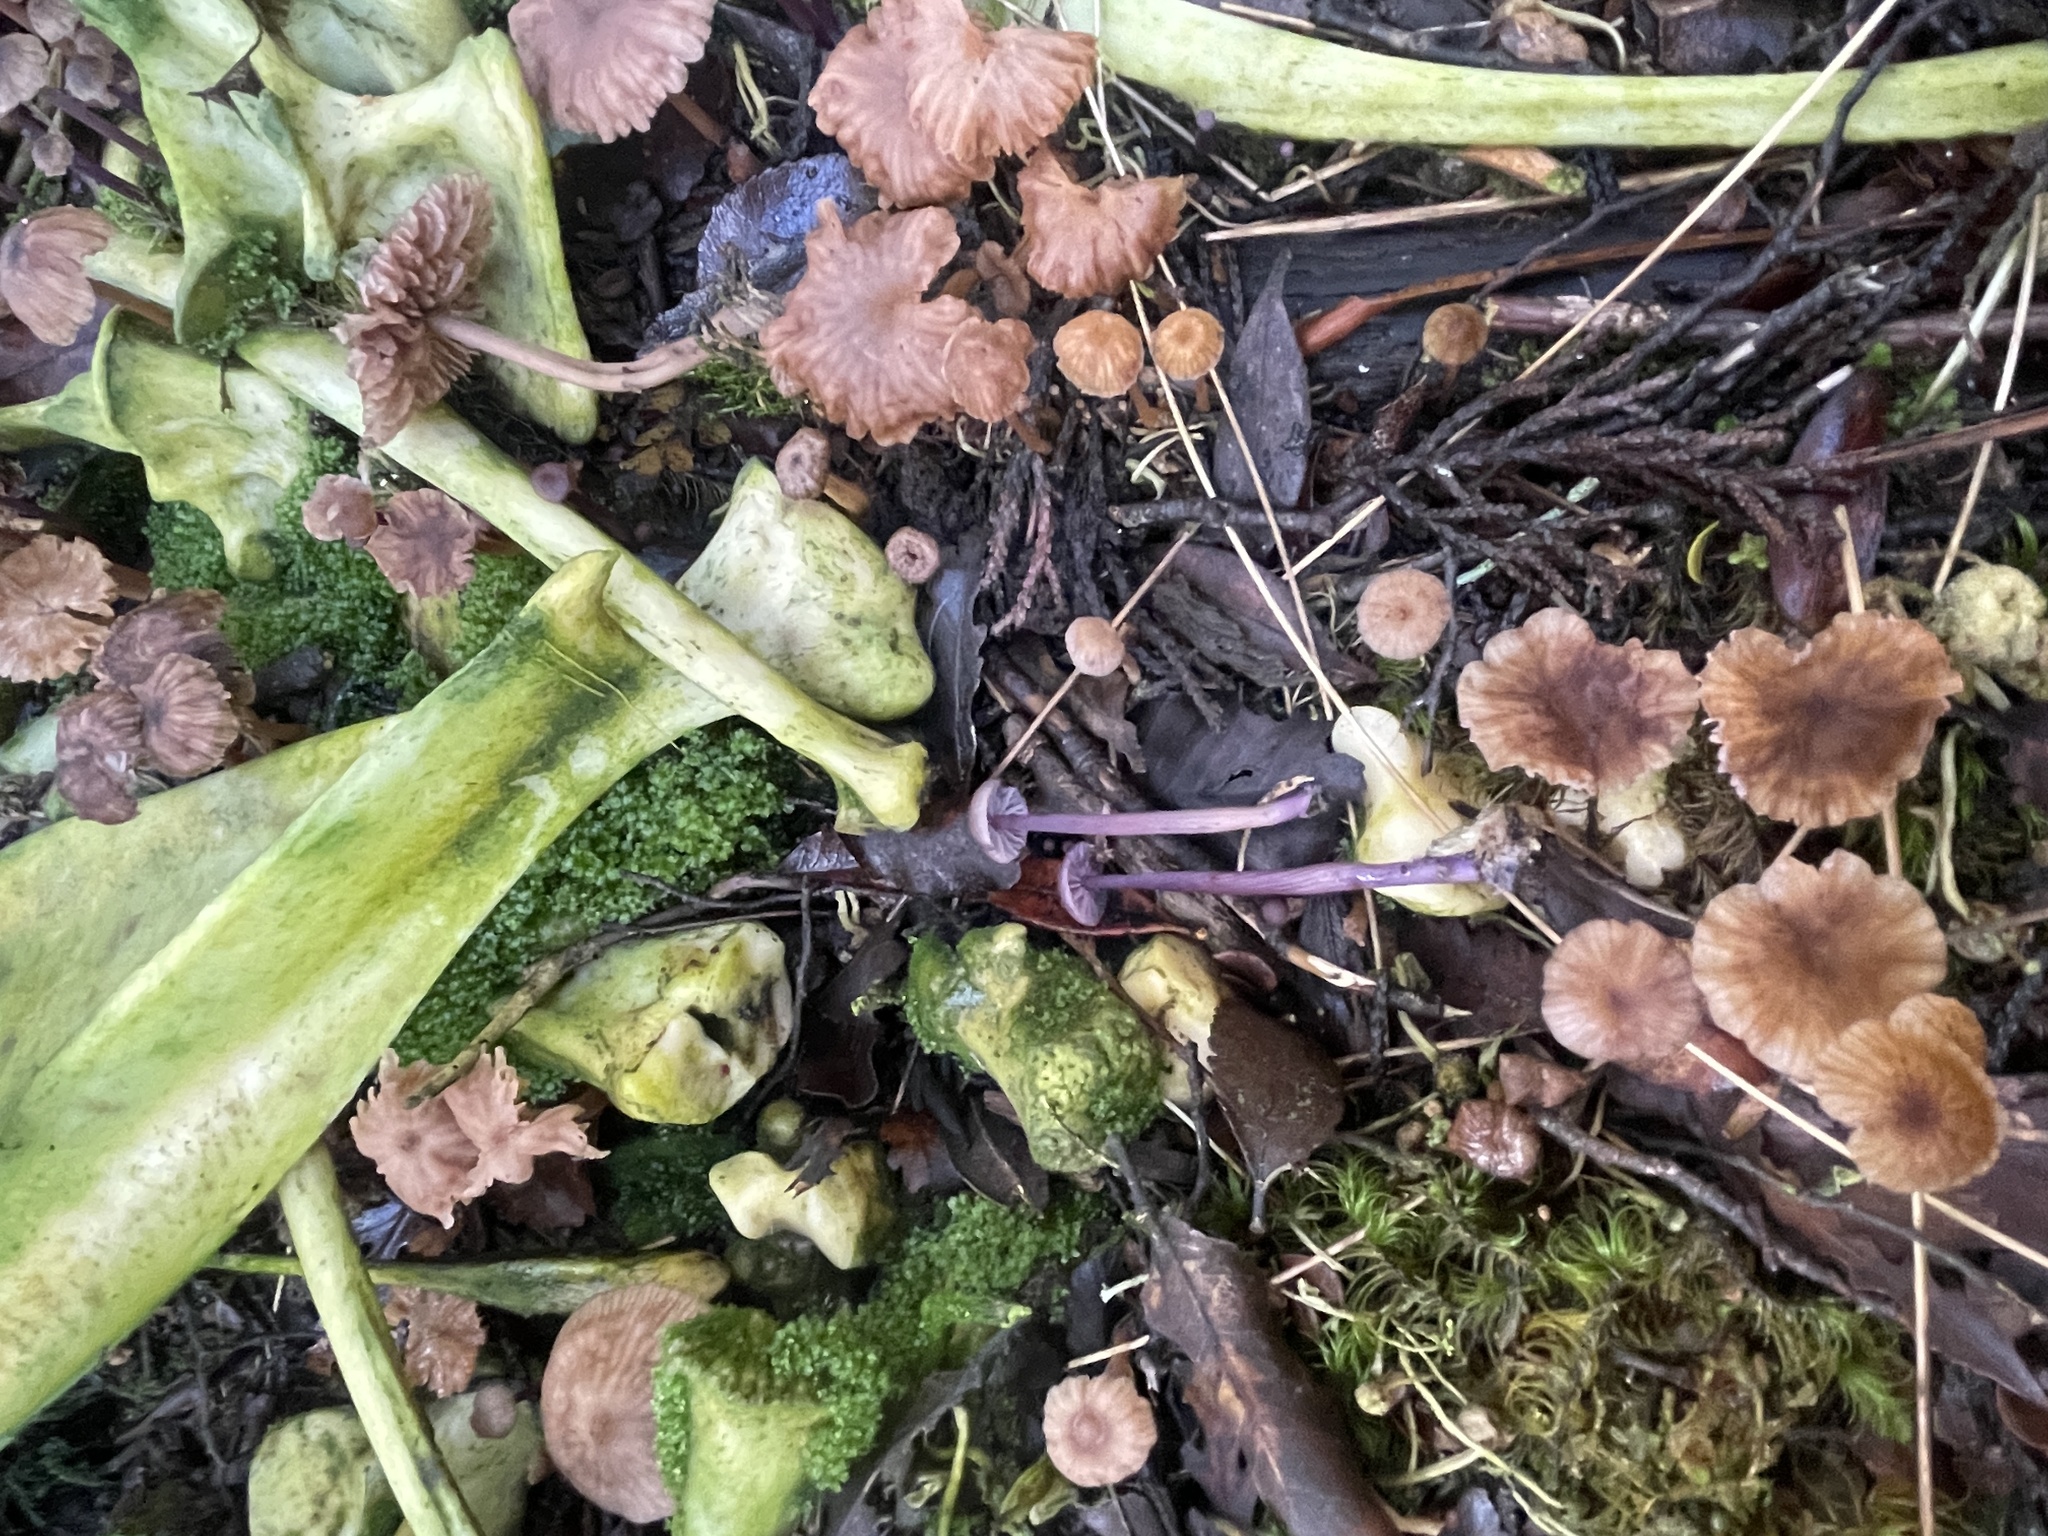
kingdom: Fungi
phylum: Basidiomycota
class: Agaricomycetes
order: Agaricales
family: Hydnangiaceae
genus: Laccaria
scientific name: Laccaria masoniae
